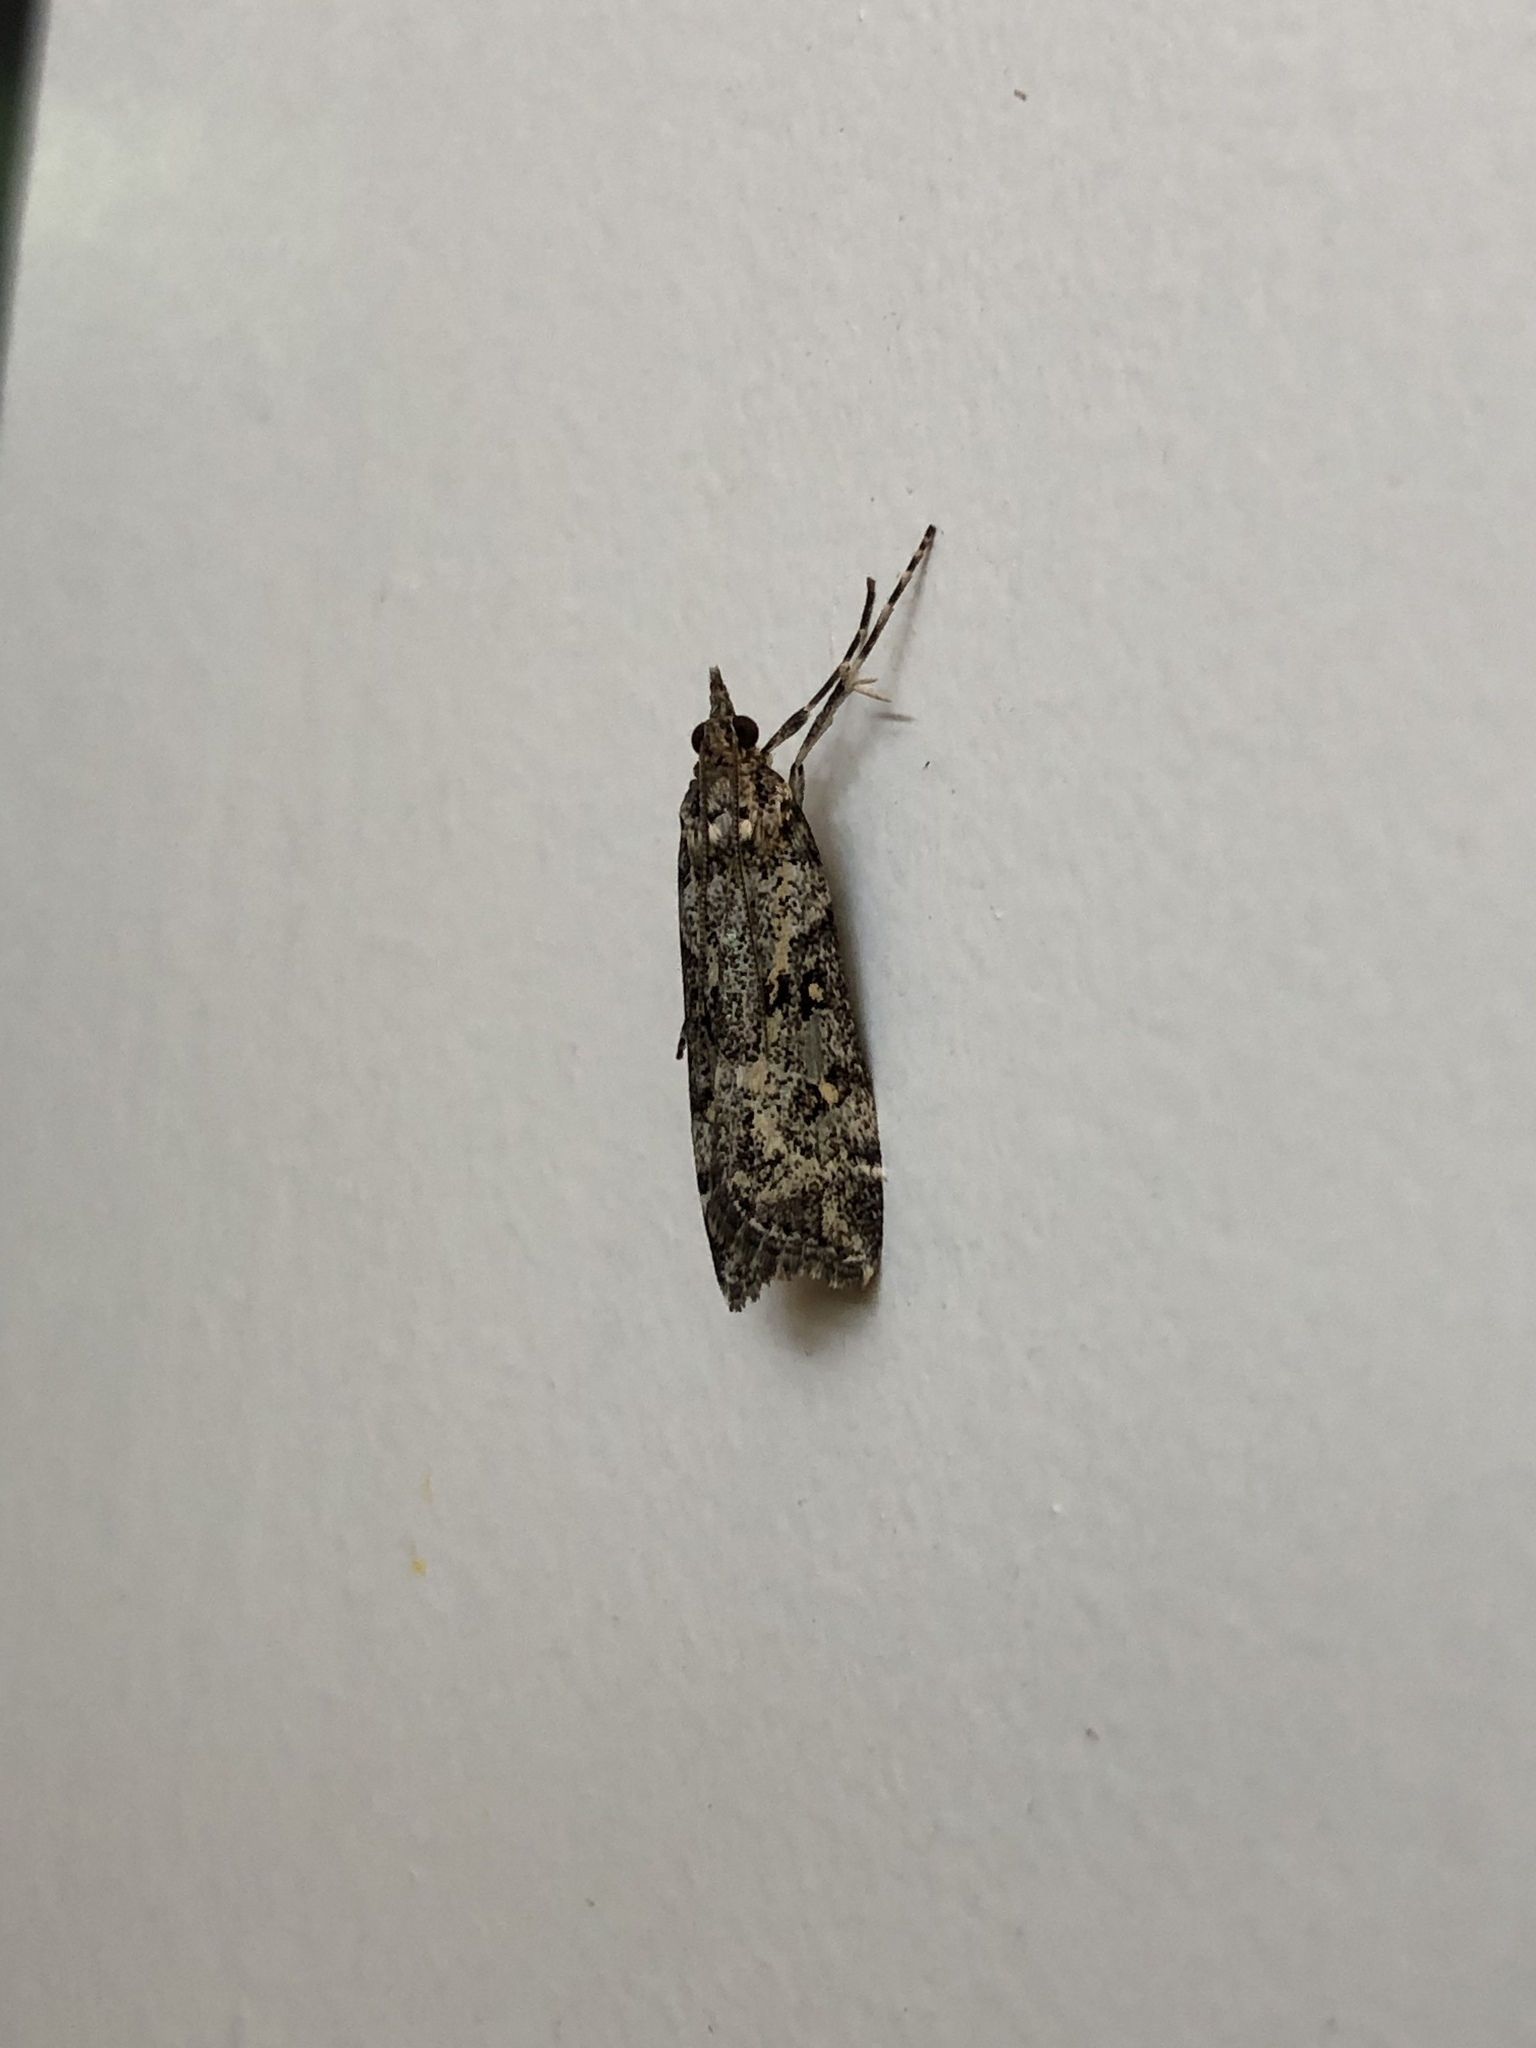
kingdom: Animalia
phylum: Arthropoda
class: Insecta
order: Lepidoptera
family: Crambidae
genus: Eudonia
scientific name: Eudonia diphtheralis
